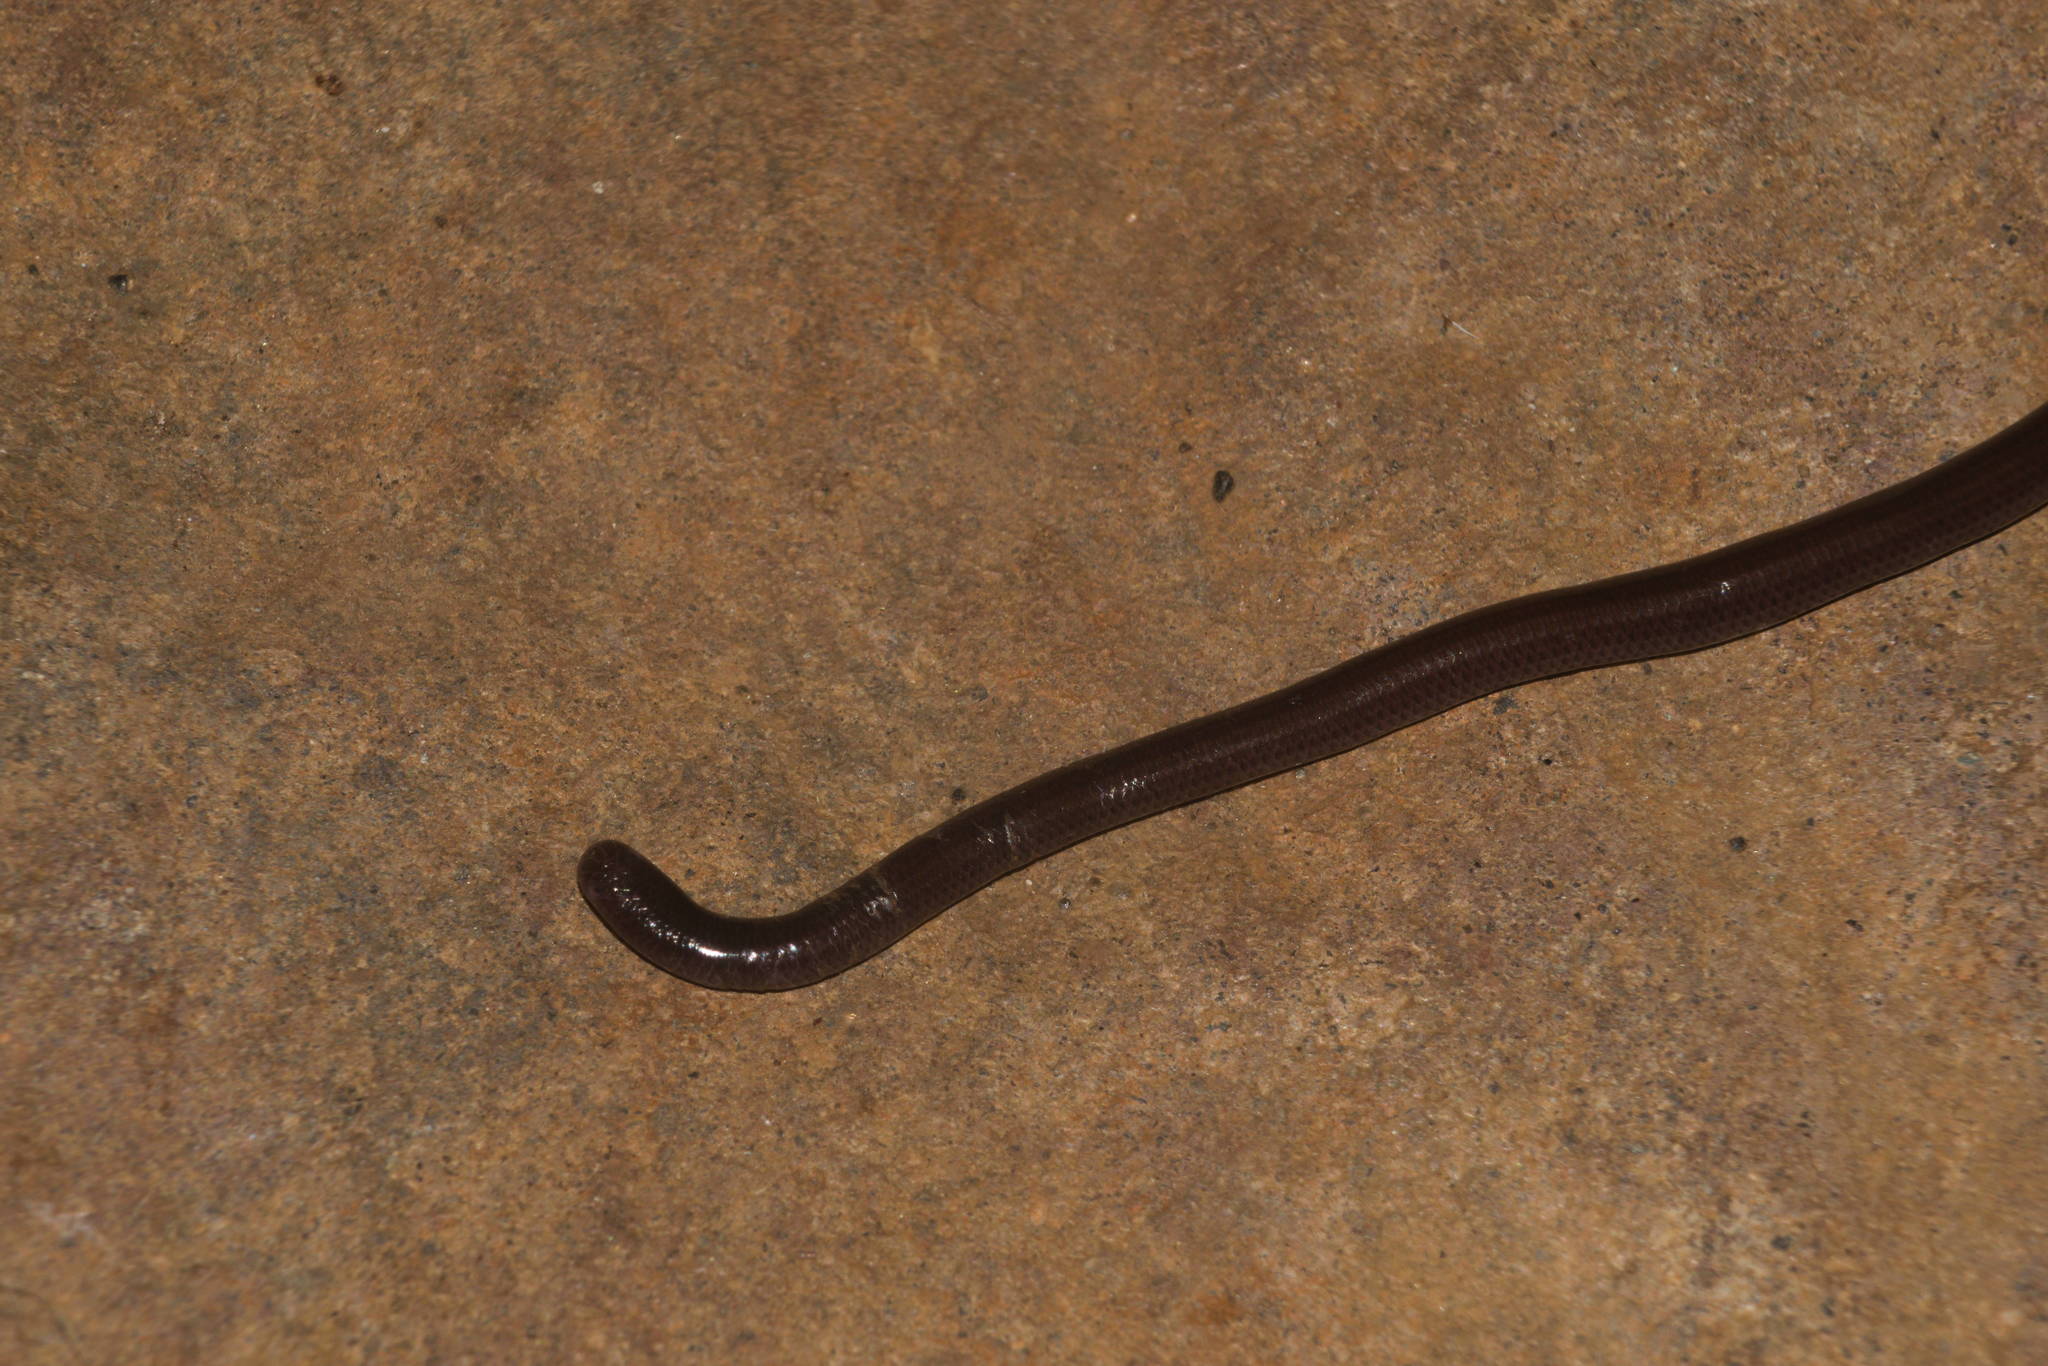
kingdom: Animalia
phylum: Chordata
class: Squamata
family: Typhlopidae
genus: Indotyphlops
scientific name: Indotyphlops braminus
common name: Brahminy blindsnake
